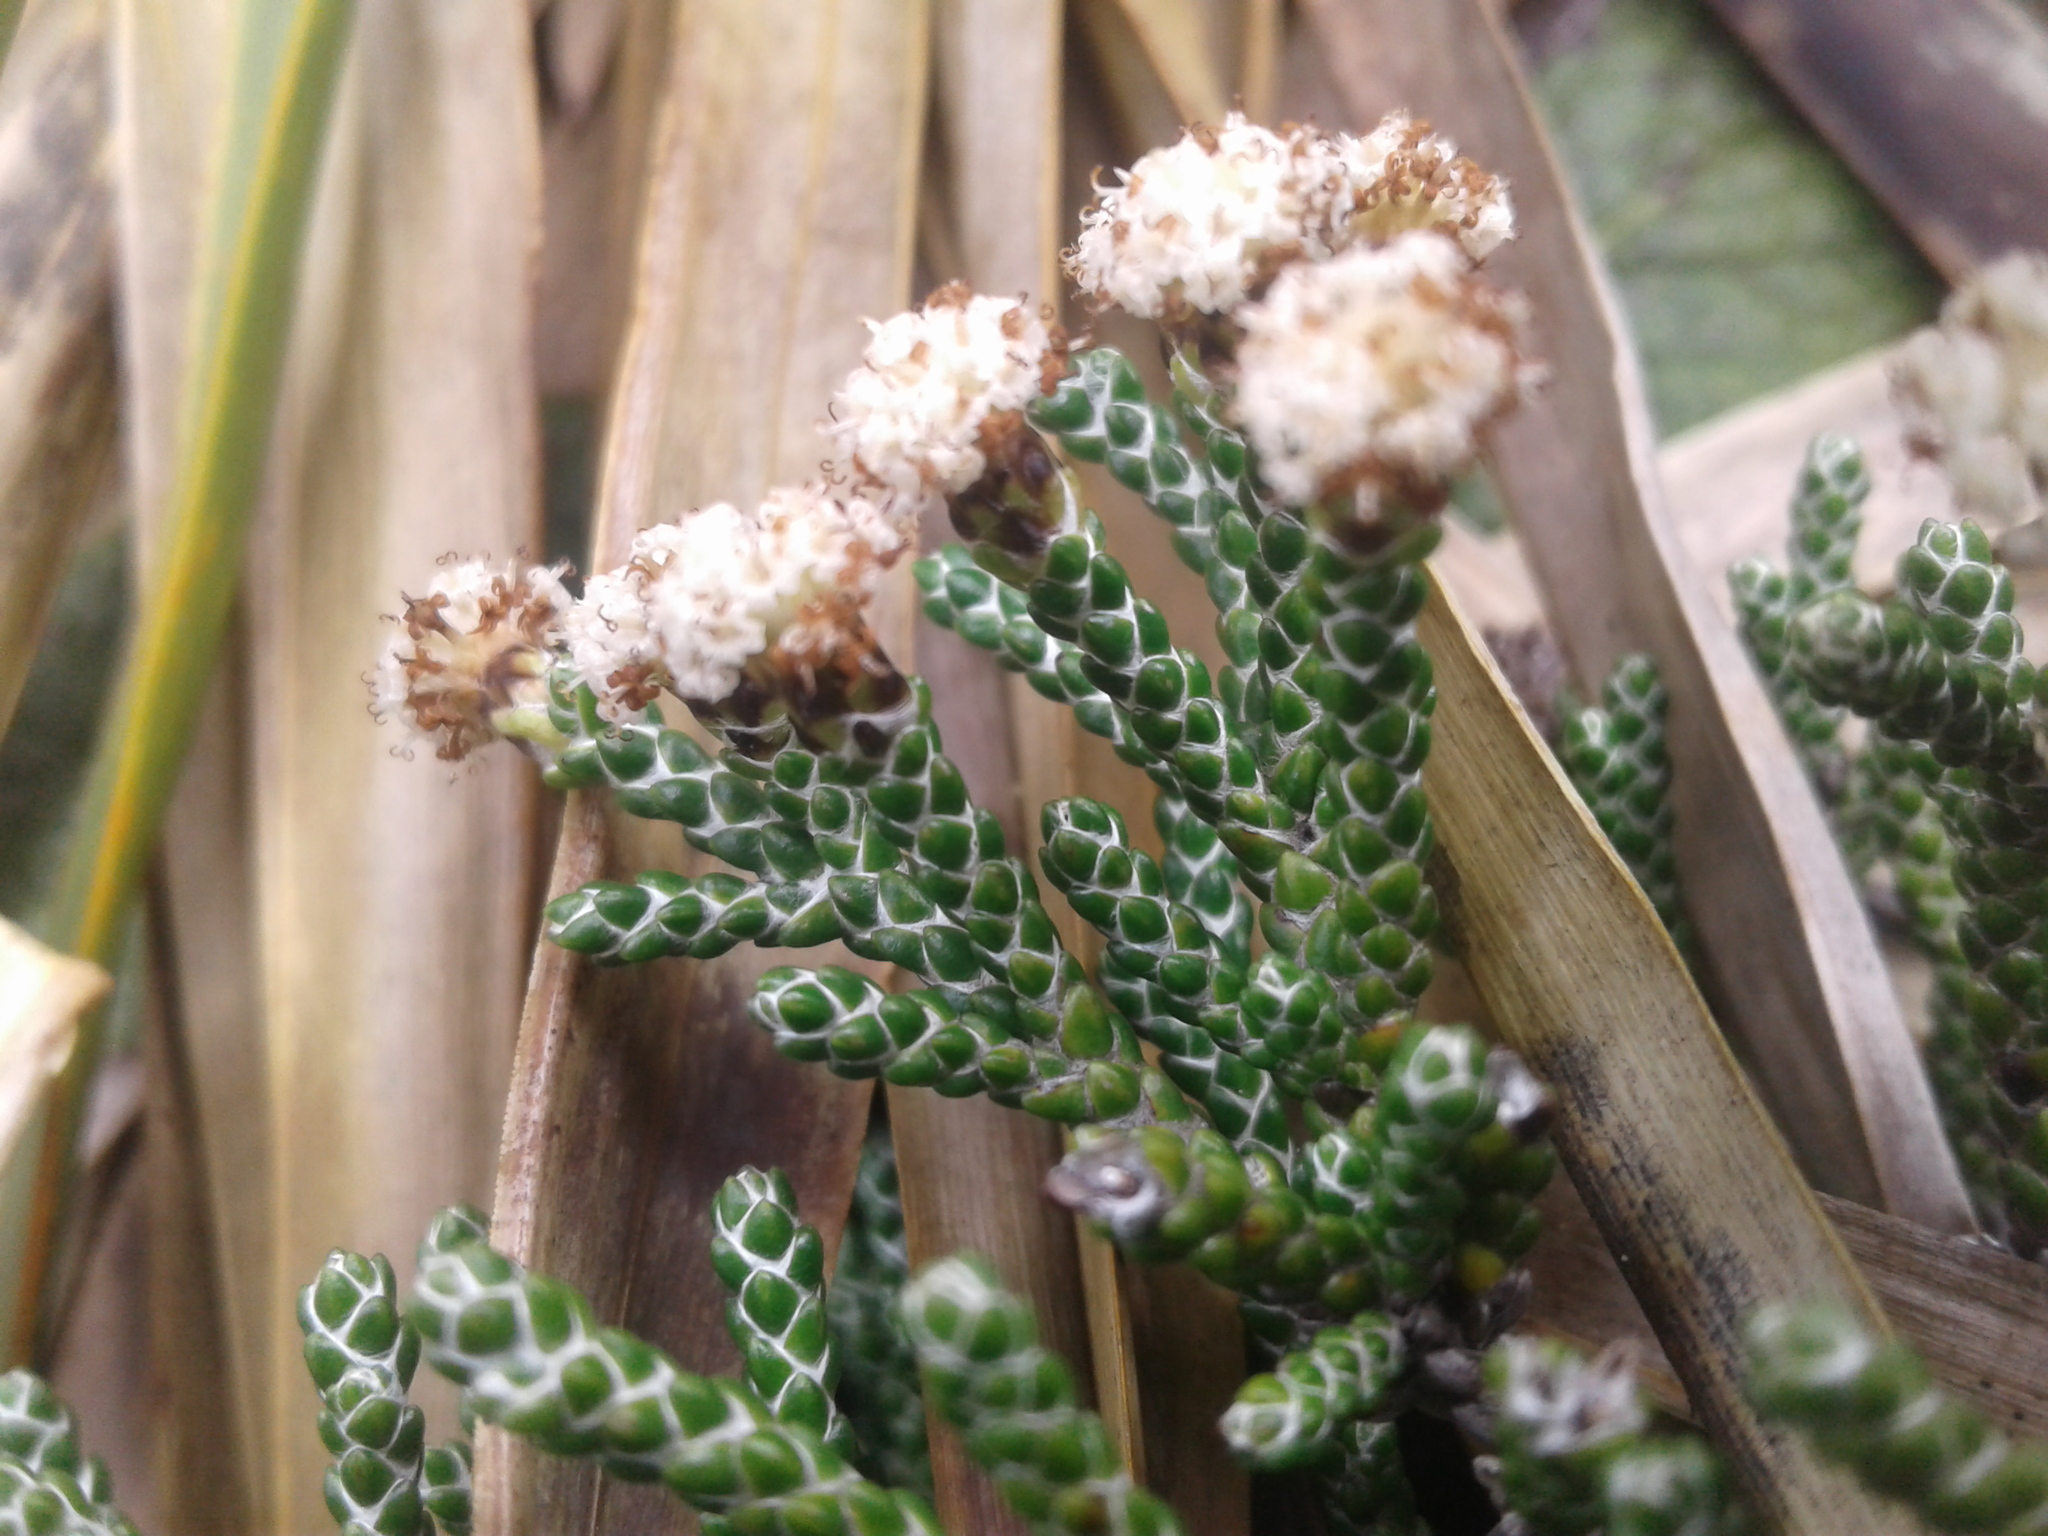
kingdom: Plantae
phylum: Tracheophyta
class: Magnoliopsida
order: Asterales
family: Asteraceae
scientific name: Asteraceae
